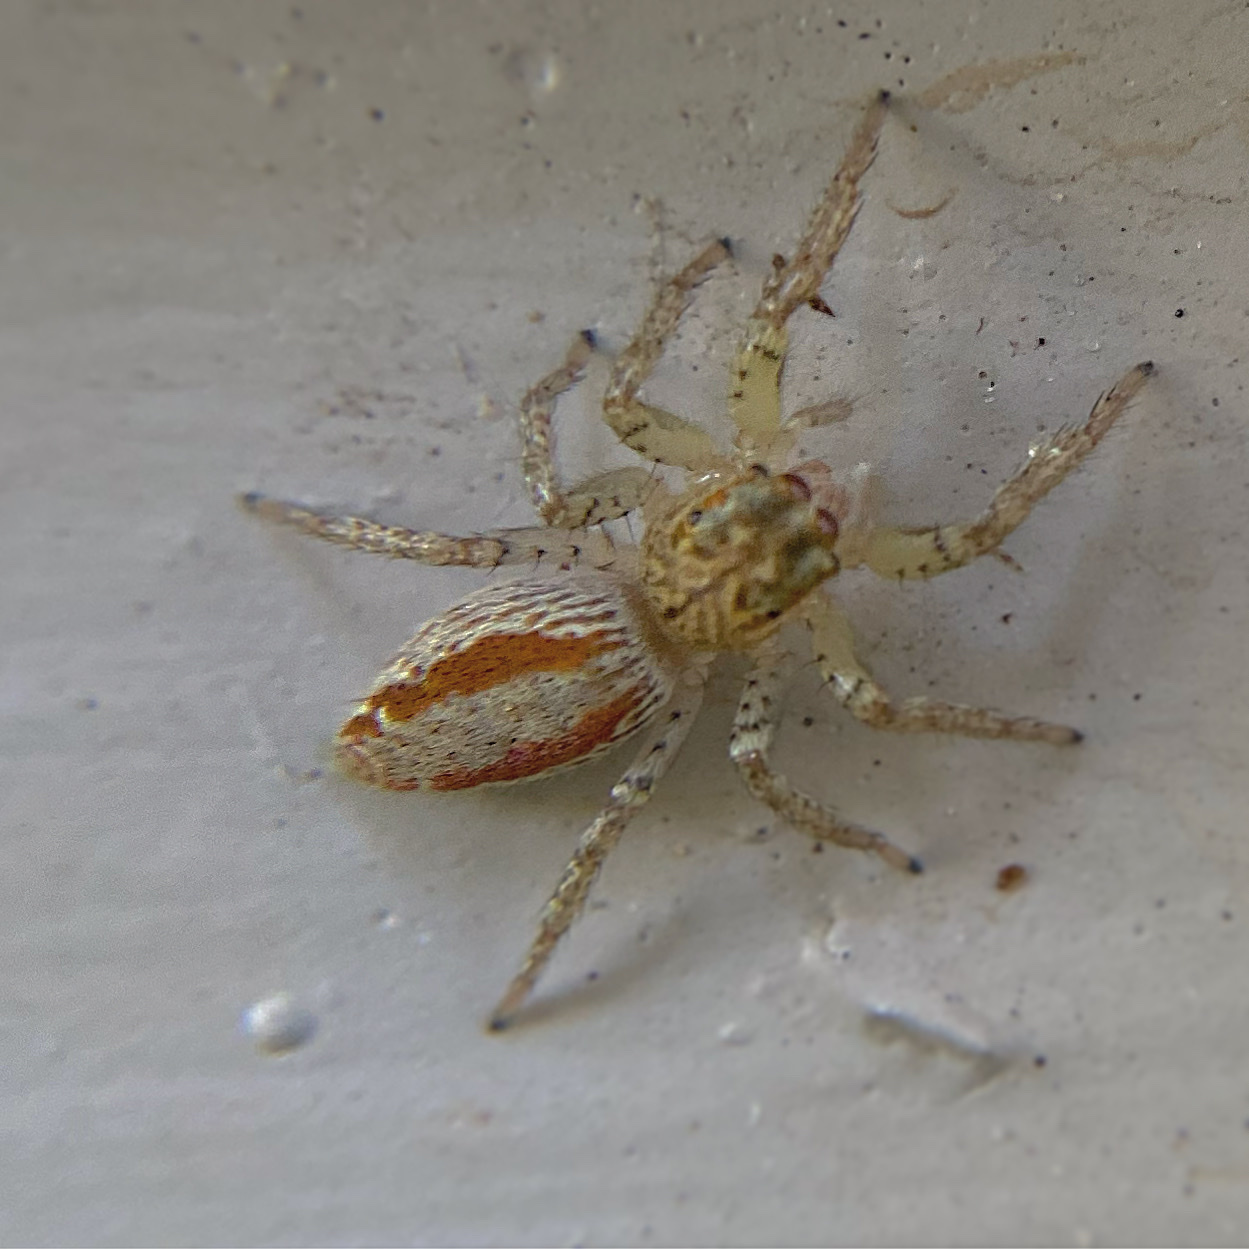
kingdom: Animalia
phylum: Arthropoda
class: Arachnida
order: Araneae
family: Salticidae
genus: Maevia
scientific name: Maevia inclemens
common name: Dimorphic jumper
